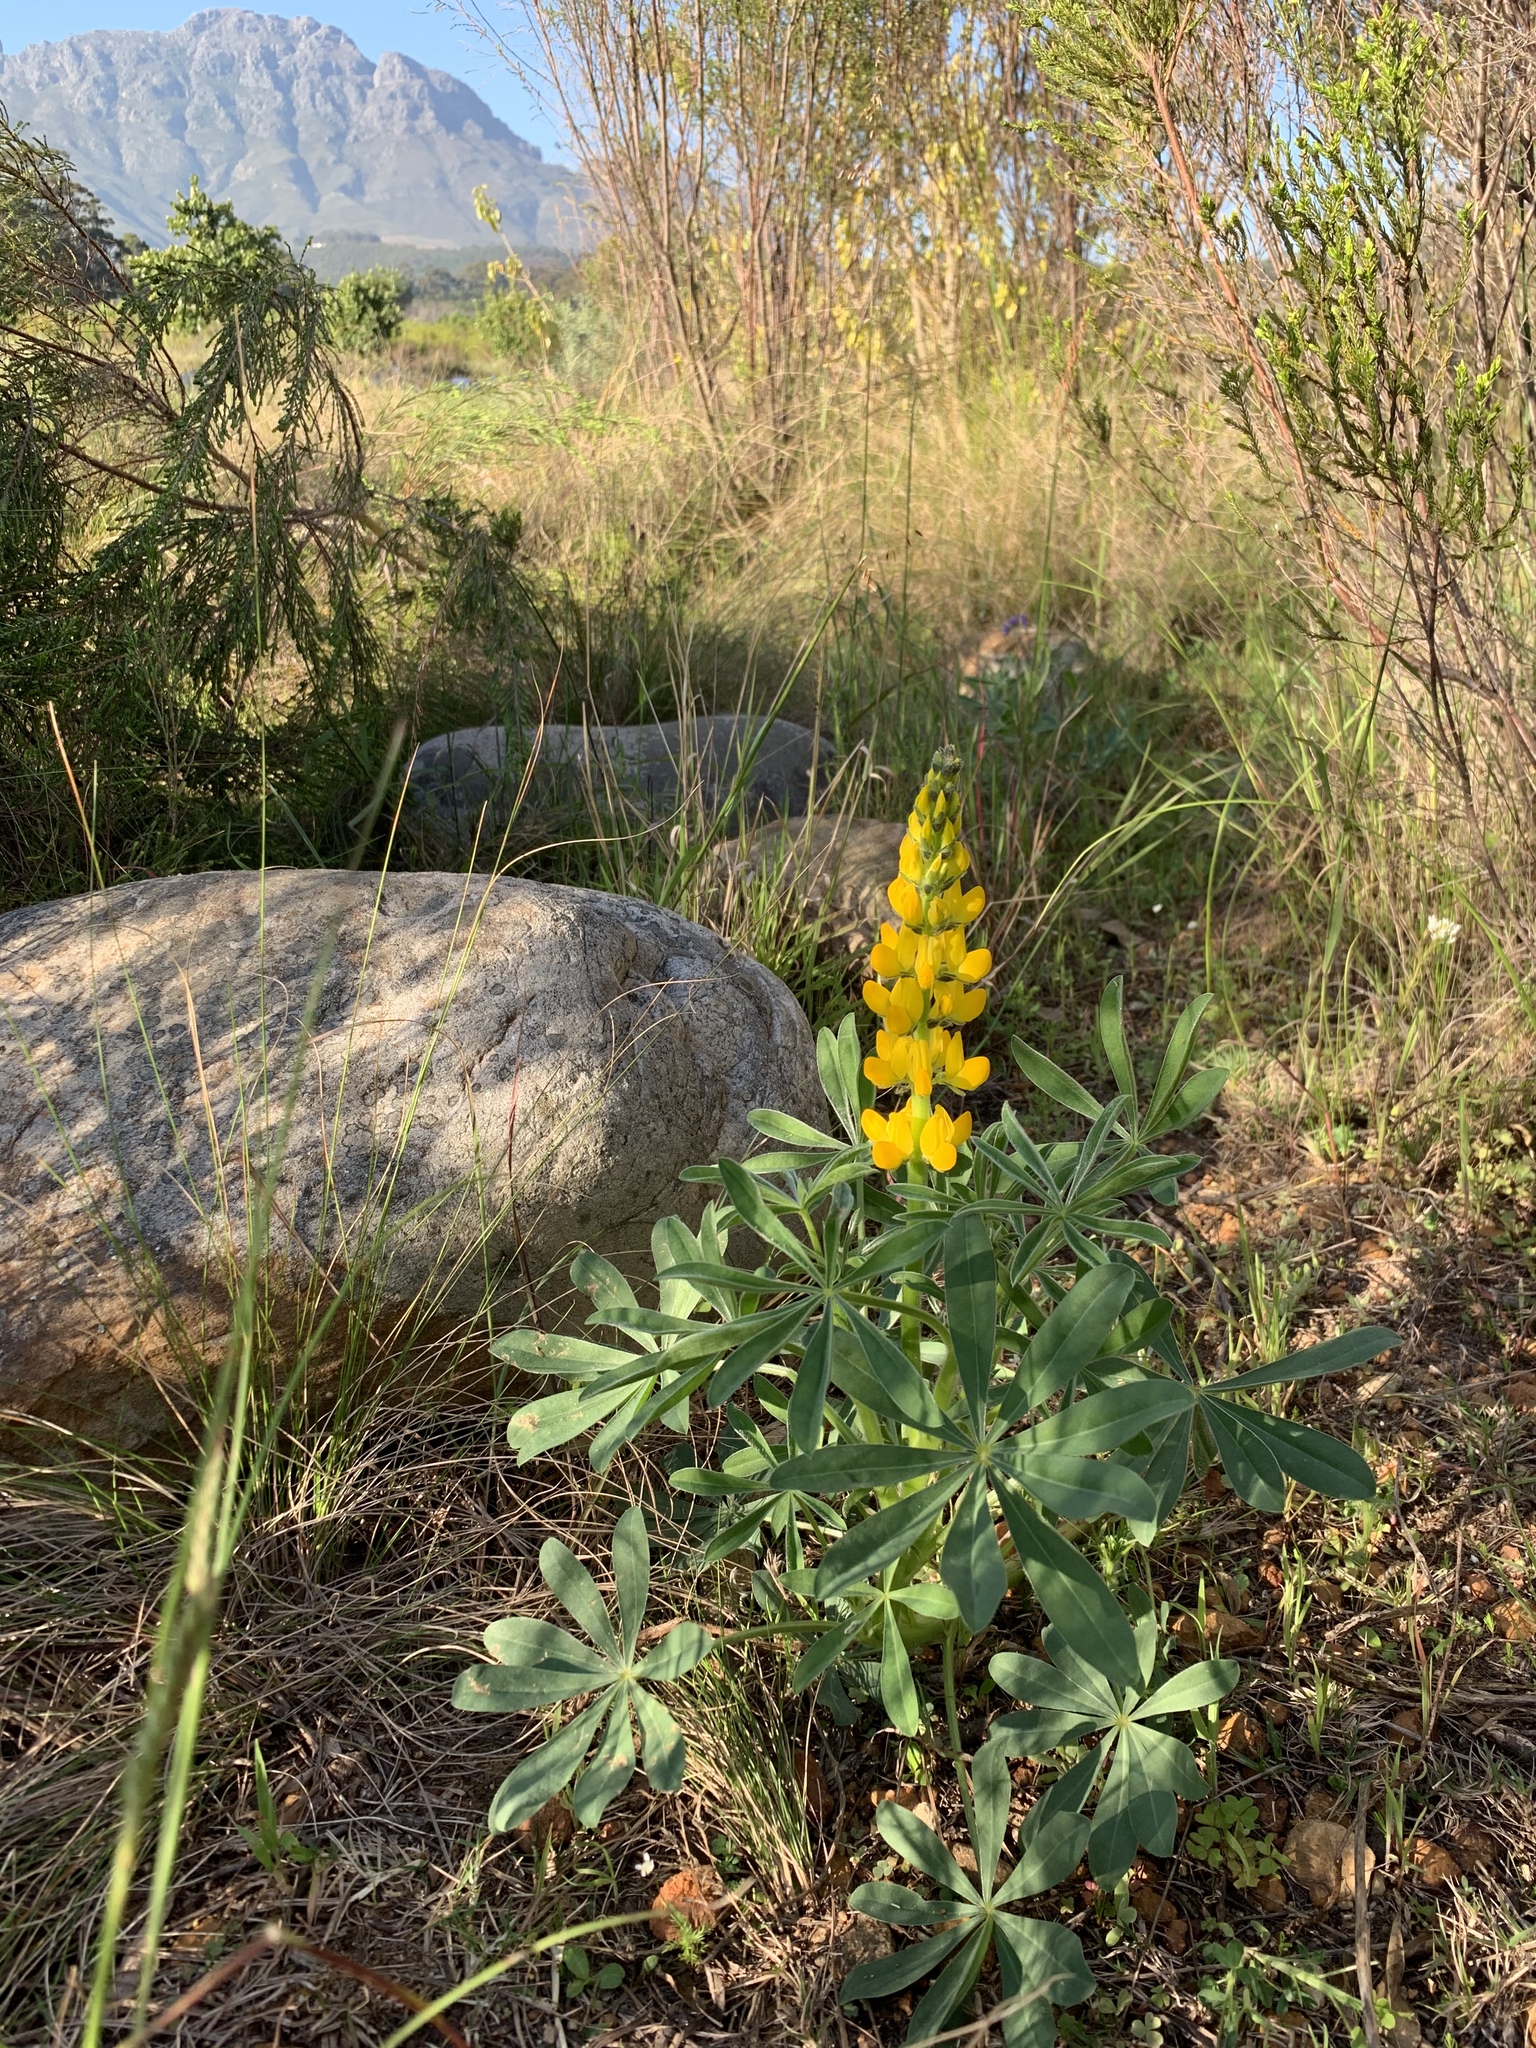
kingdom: Plantae
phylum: Tracheophyta
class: Magnoliopsida
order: Fabales
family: Fabaceae
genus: Lupinus
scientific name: Lupinus luteus
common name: European yellow lupine
